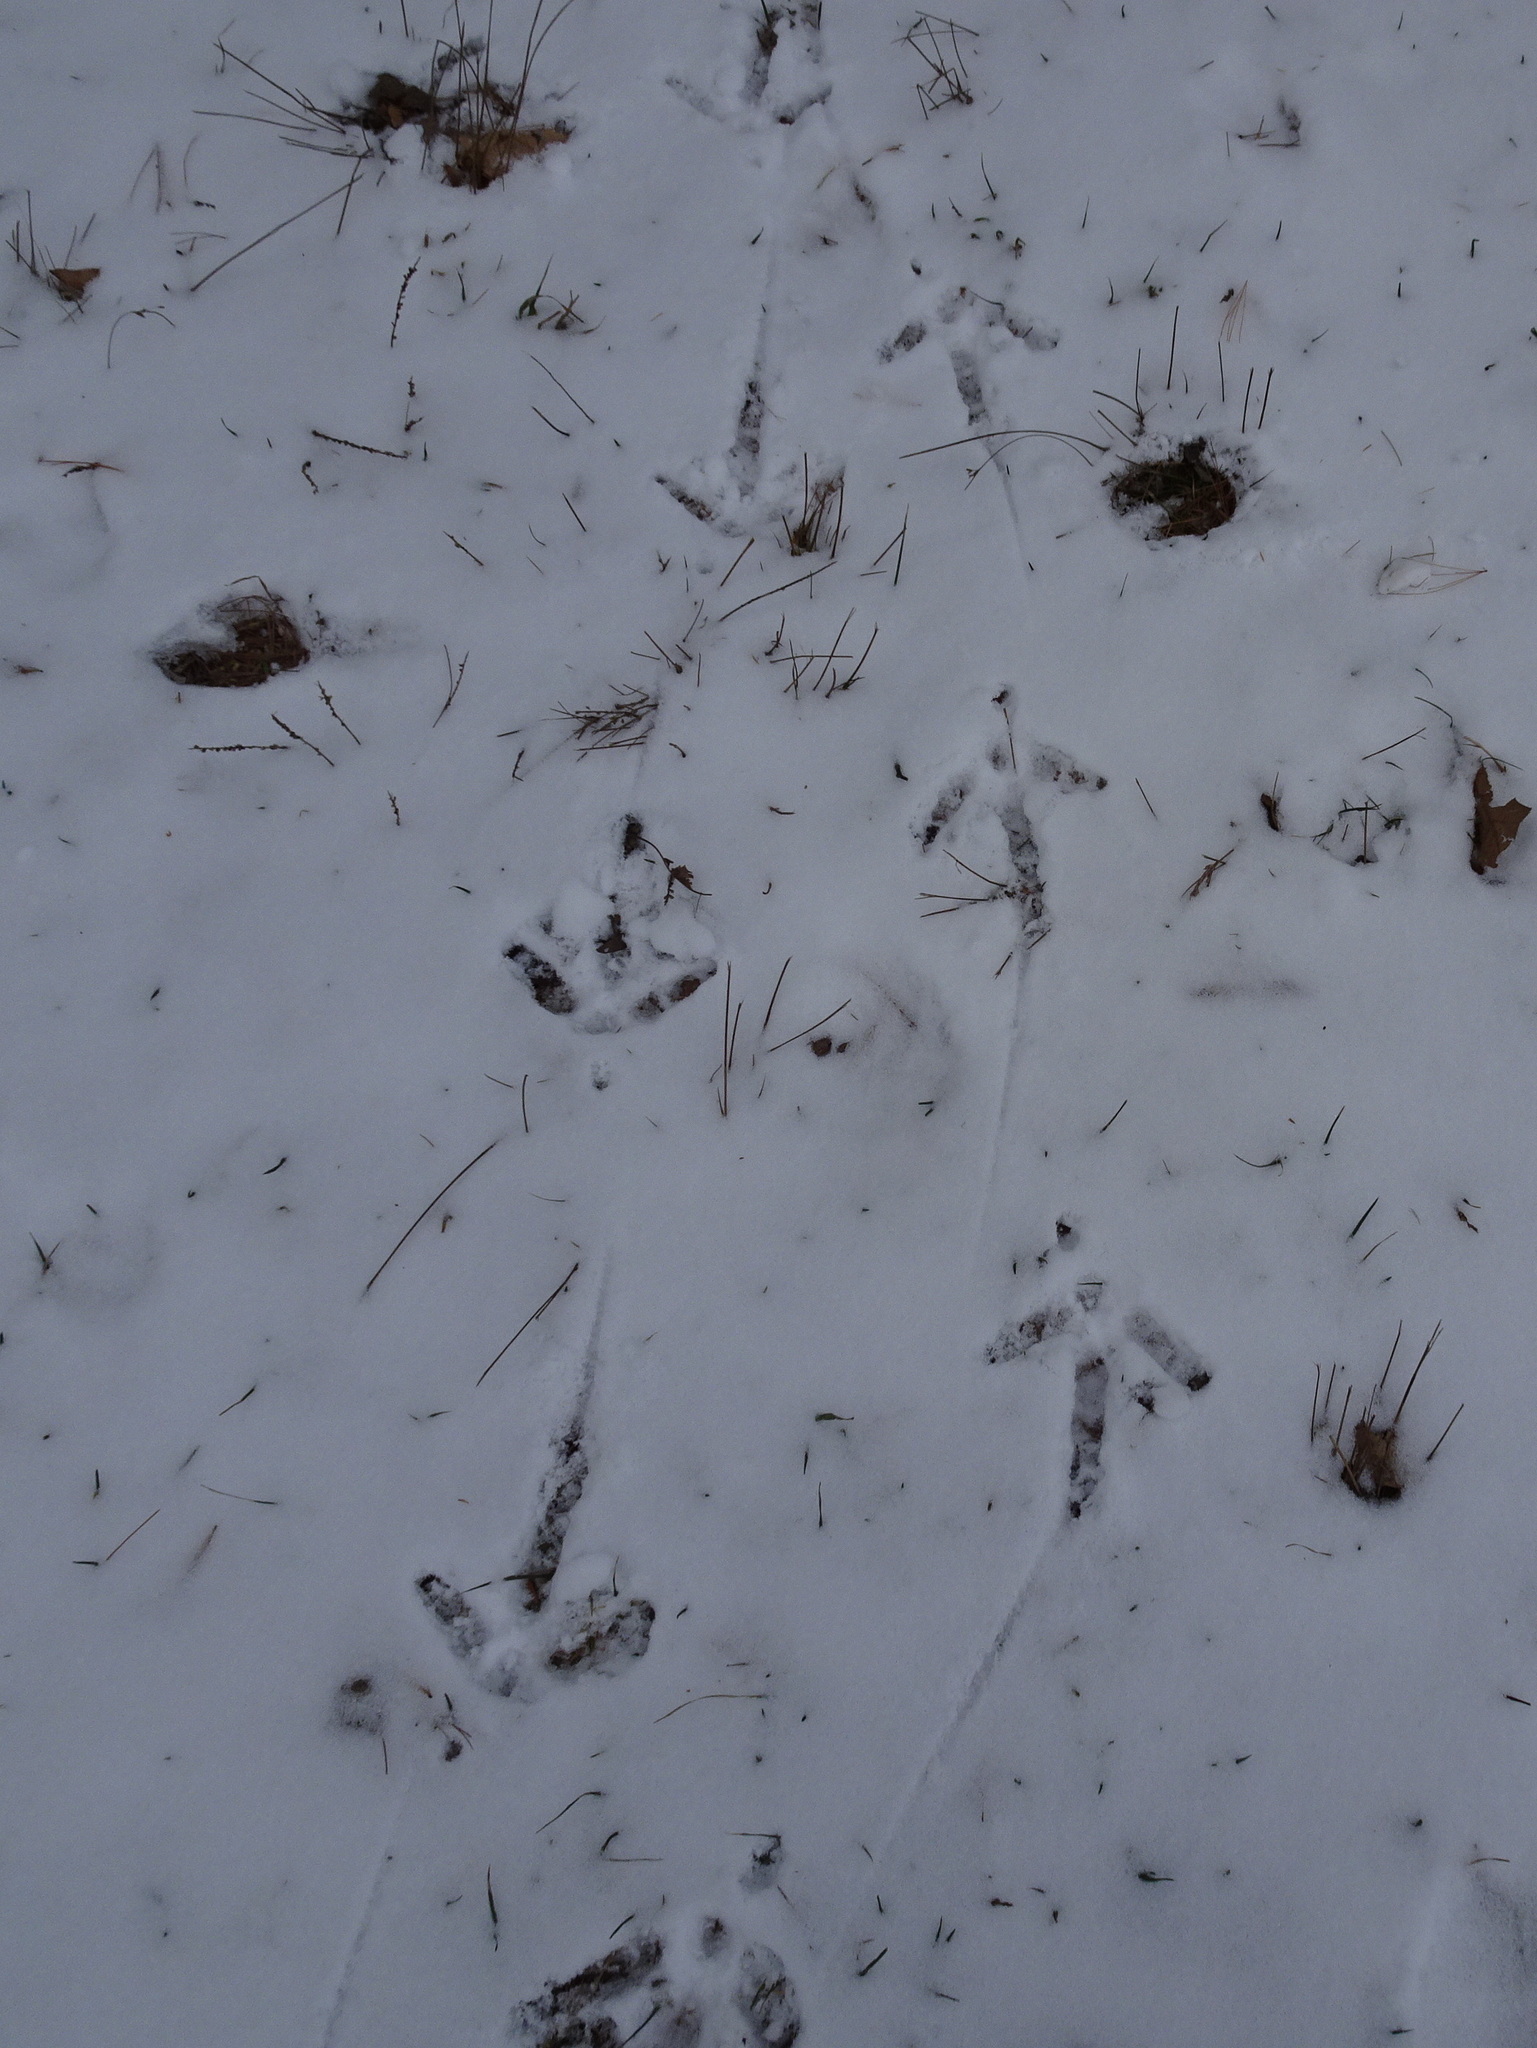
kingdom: Animalia
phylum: Chordata
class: Aves
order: Galliformes
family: Phasianidae
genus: Meleagris
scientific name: Meleagris gallopavo
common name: Wild turkey
